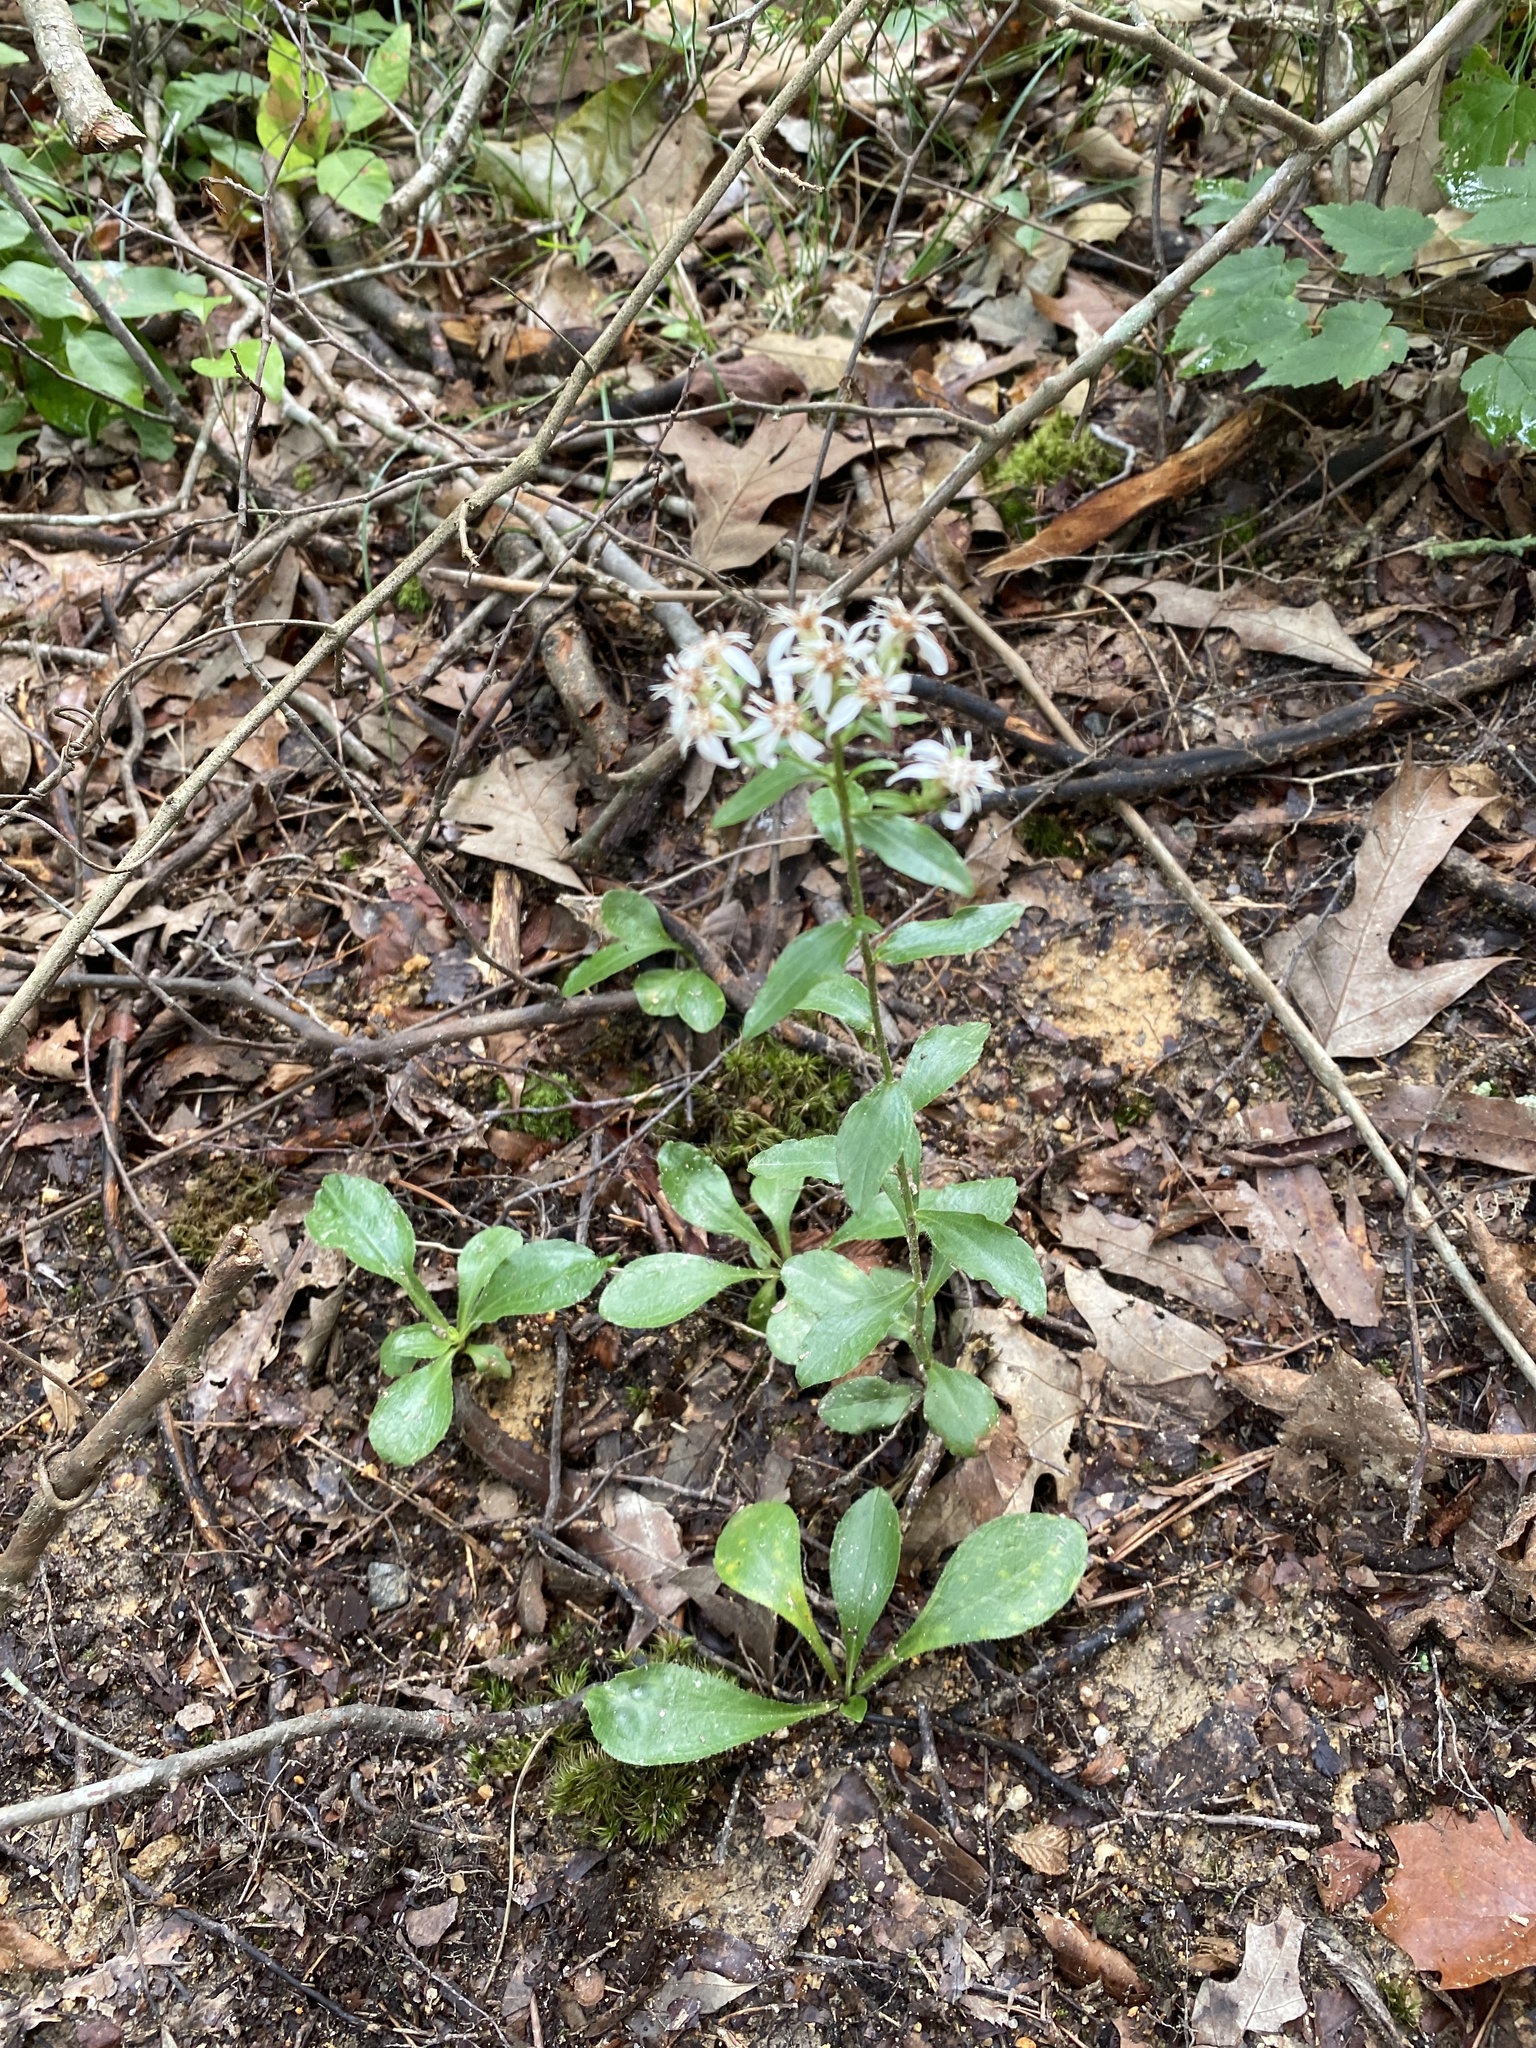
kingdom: Plantae
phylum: Tracheophyta
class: Magnoliopsida
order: Asterales
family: Asteraceae
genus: Sericocarpus
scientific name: Sericocarpus asteroides
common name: Toothed white-top aster
